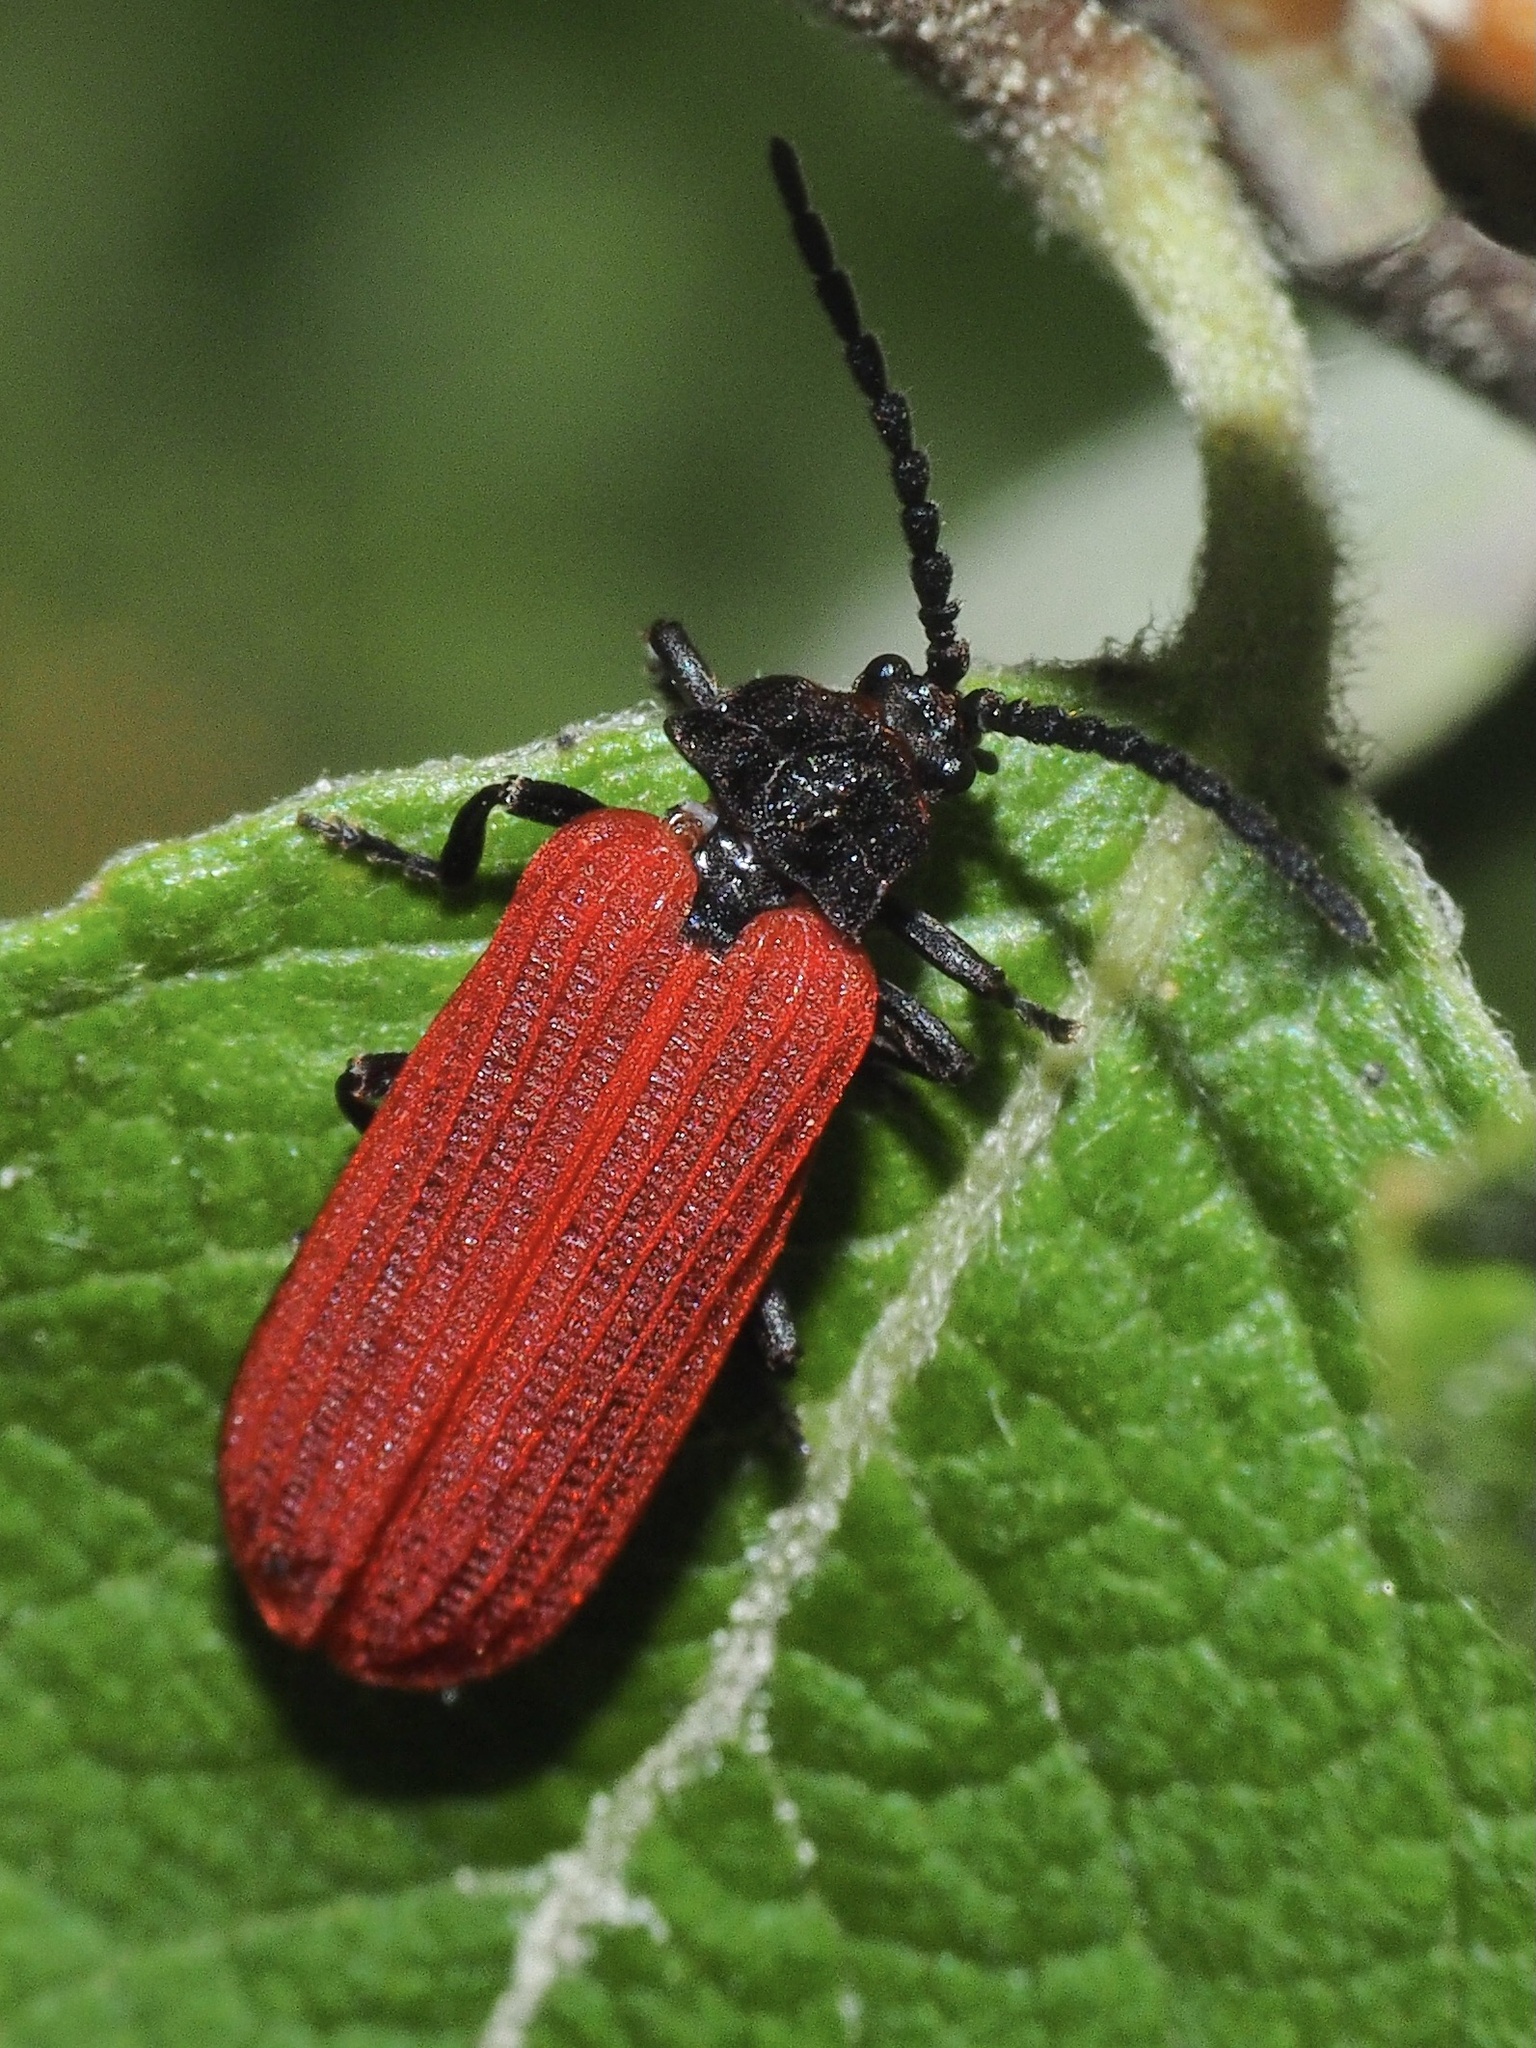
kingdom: Animalia
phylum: Arthropoda
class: Insecta
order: Coleoptera
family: Lycidae
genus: Pyropterus
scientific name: Pyropterus nigroruber
